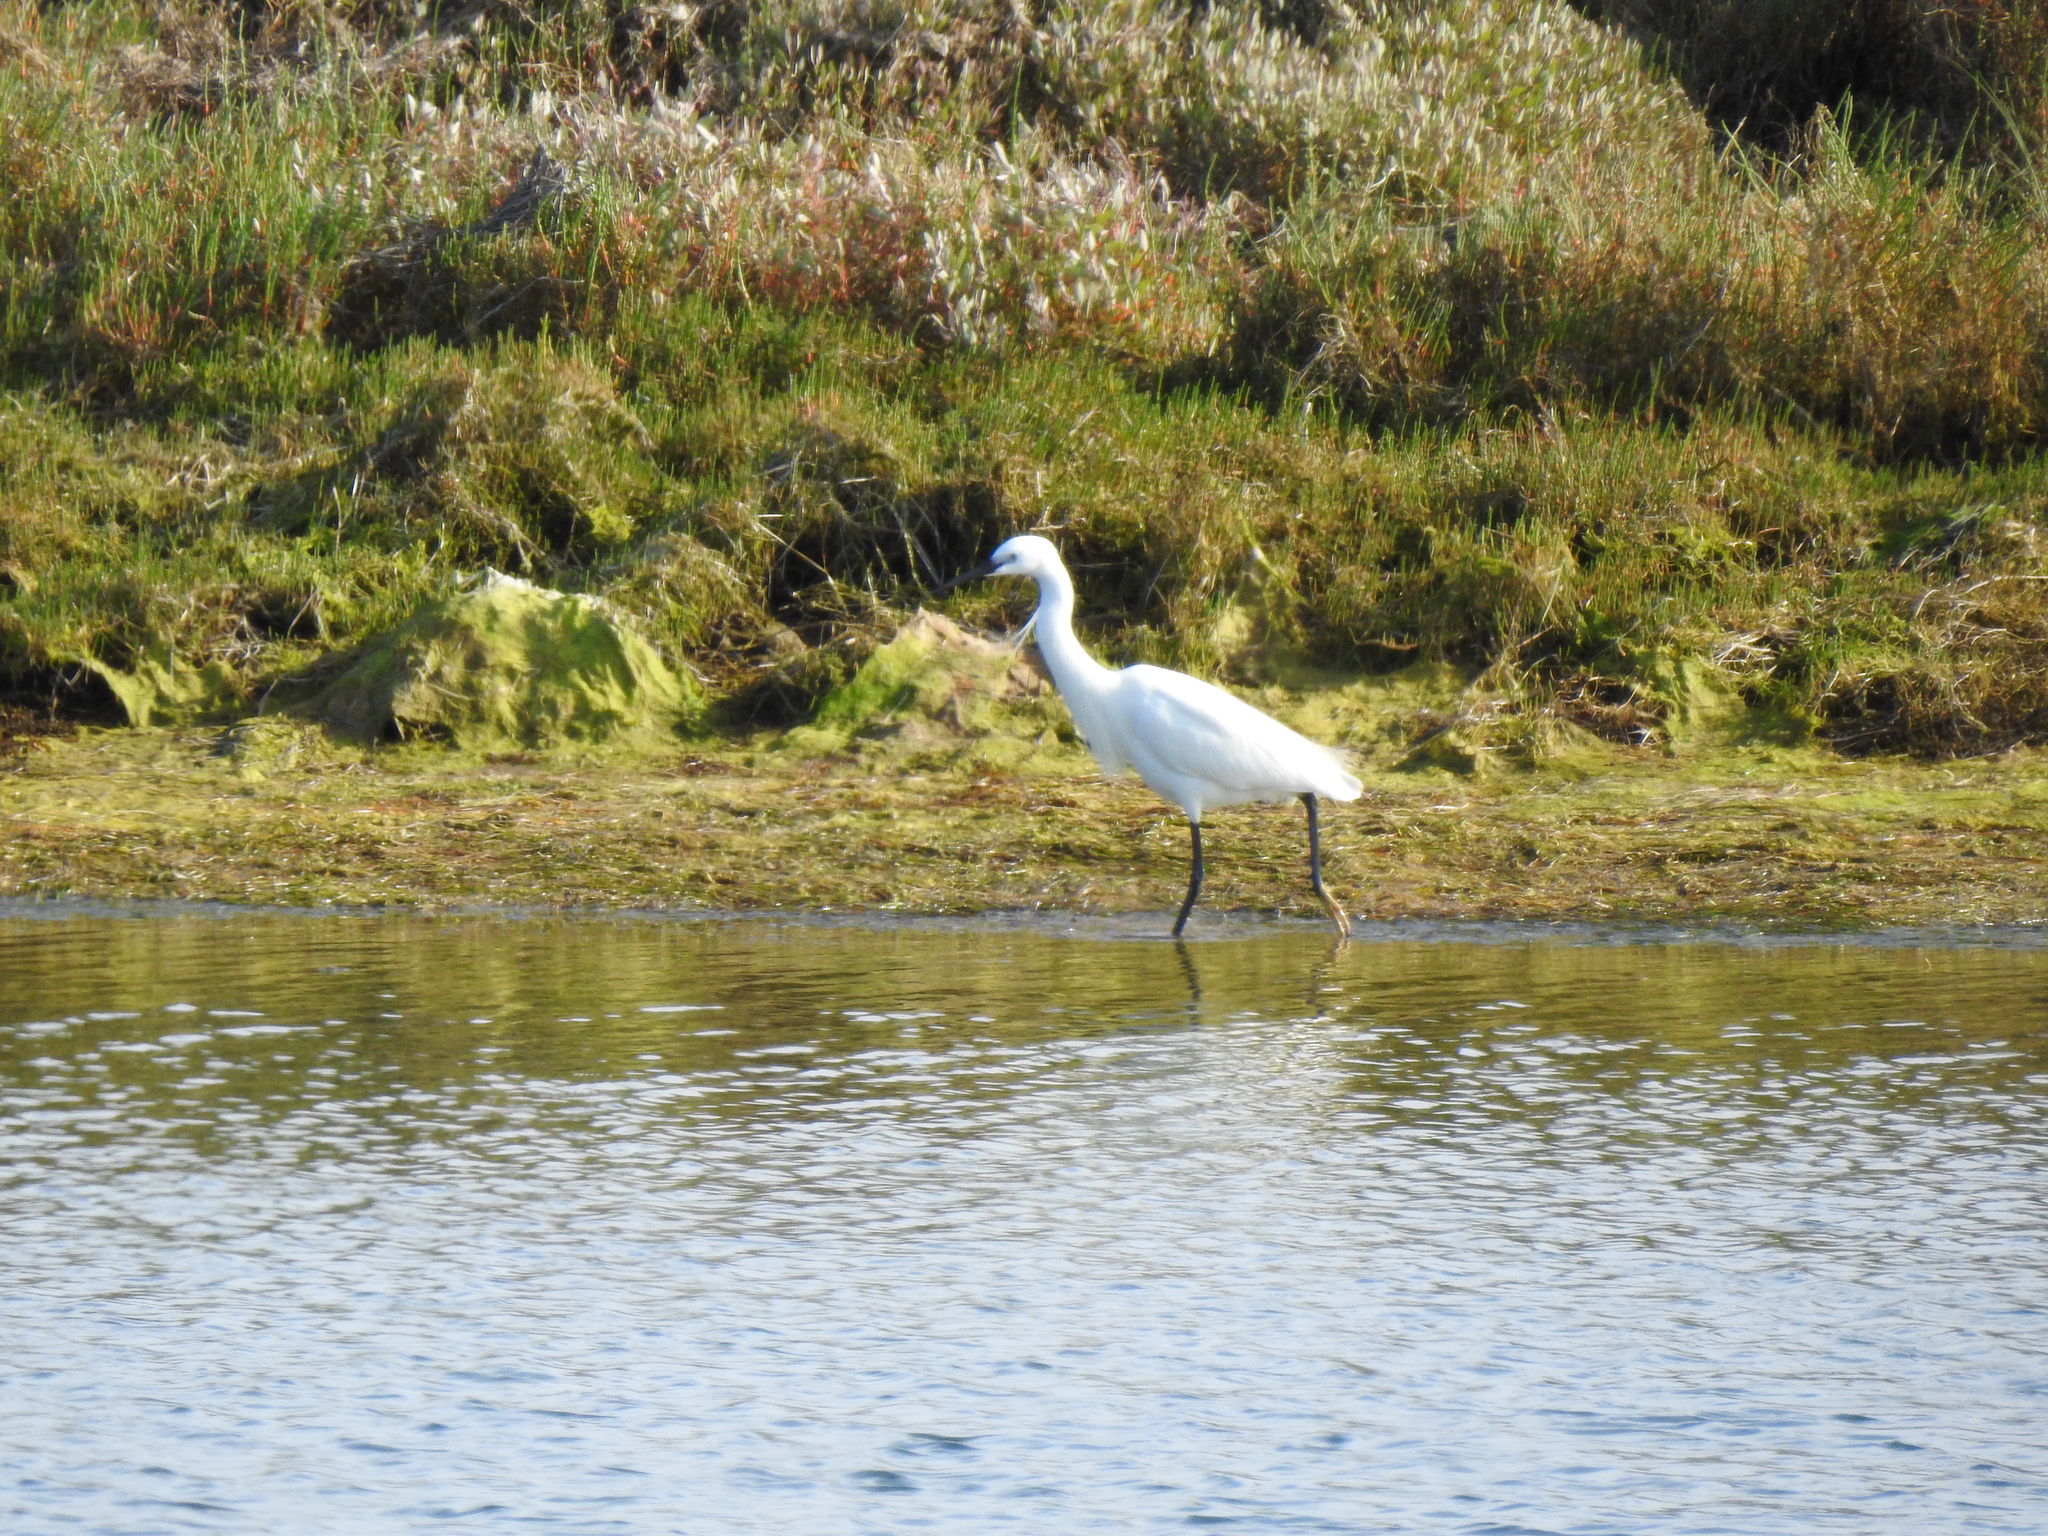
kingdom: Animalia
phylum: Chordata
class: Aves
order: Pelecaniformes
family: Ardeidae
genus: Egretta
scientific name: Egretta garzetta
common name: Little egret
